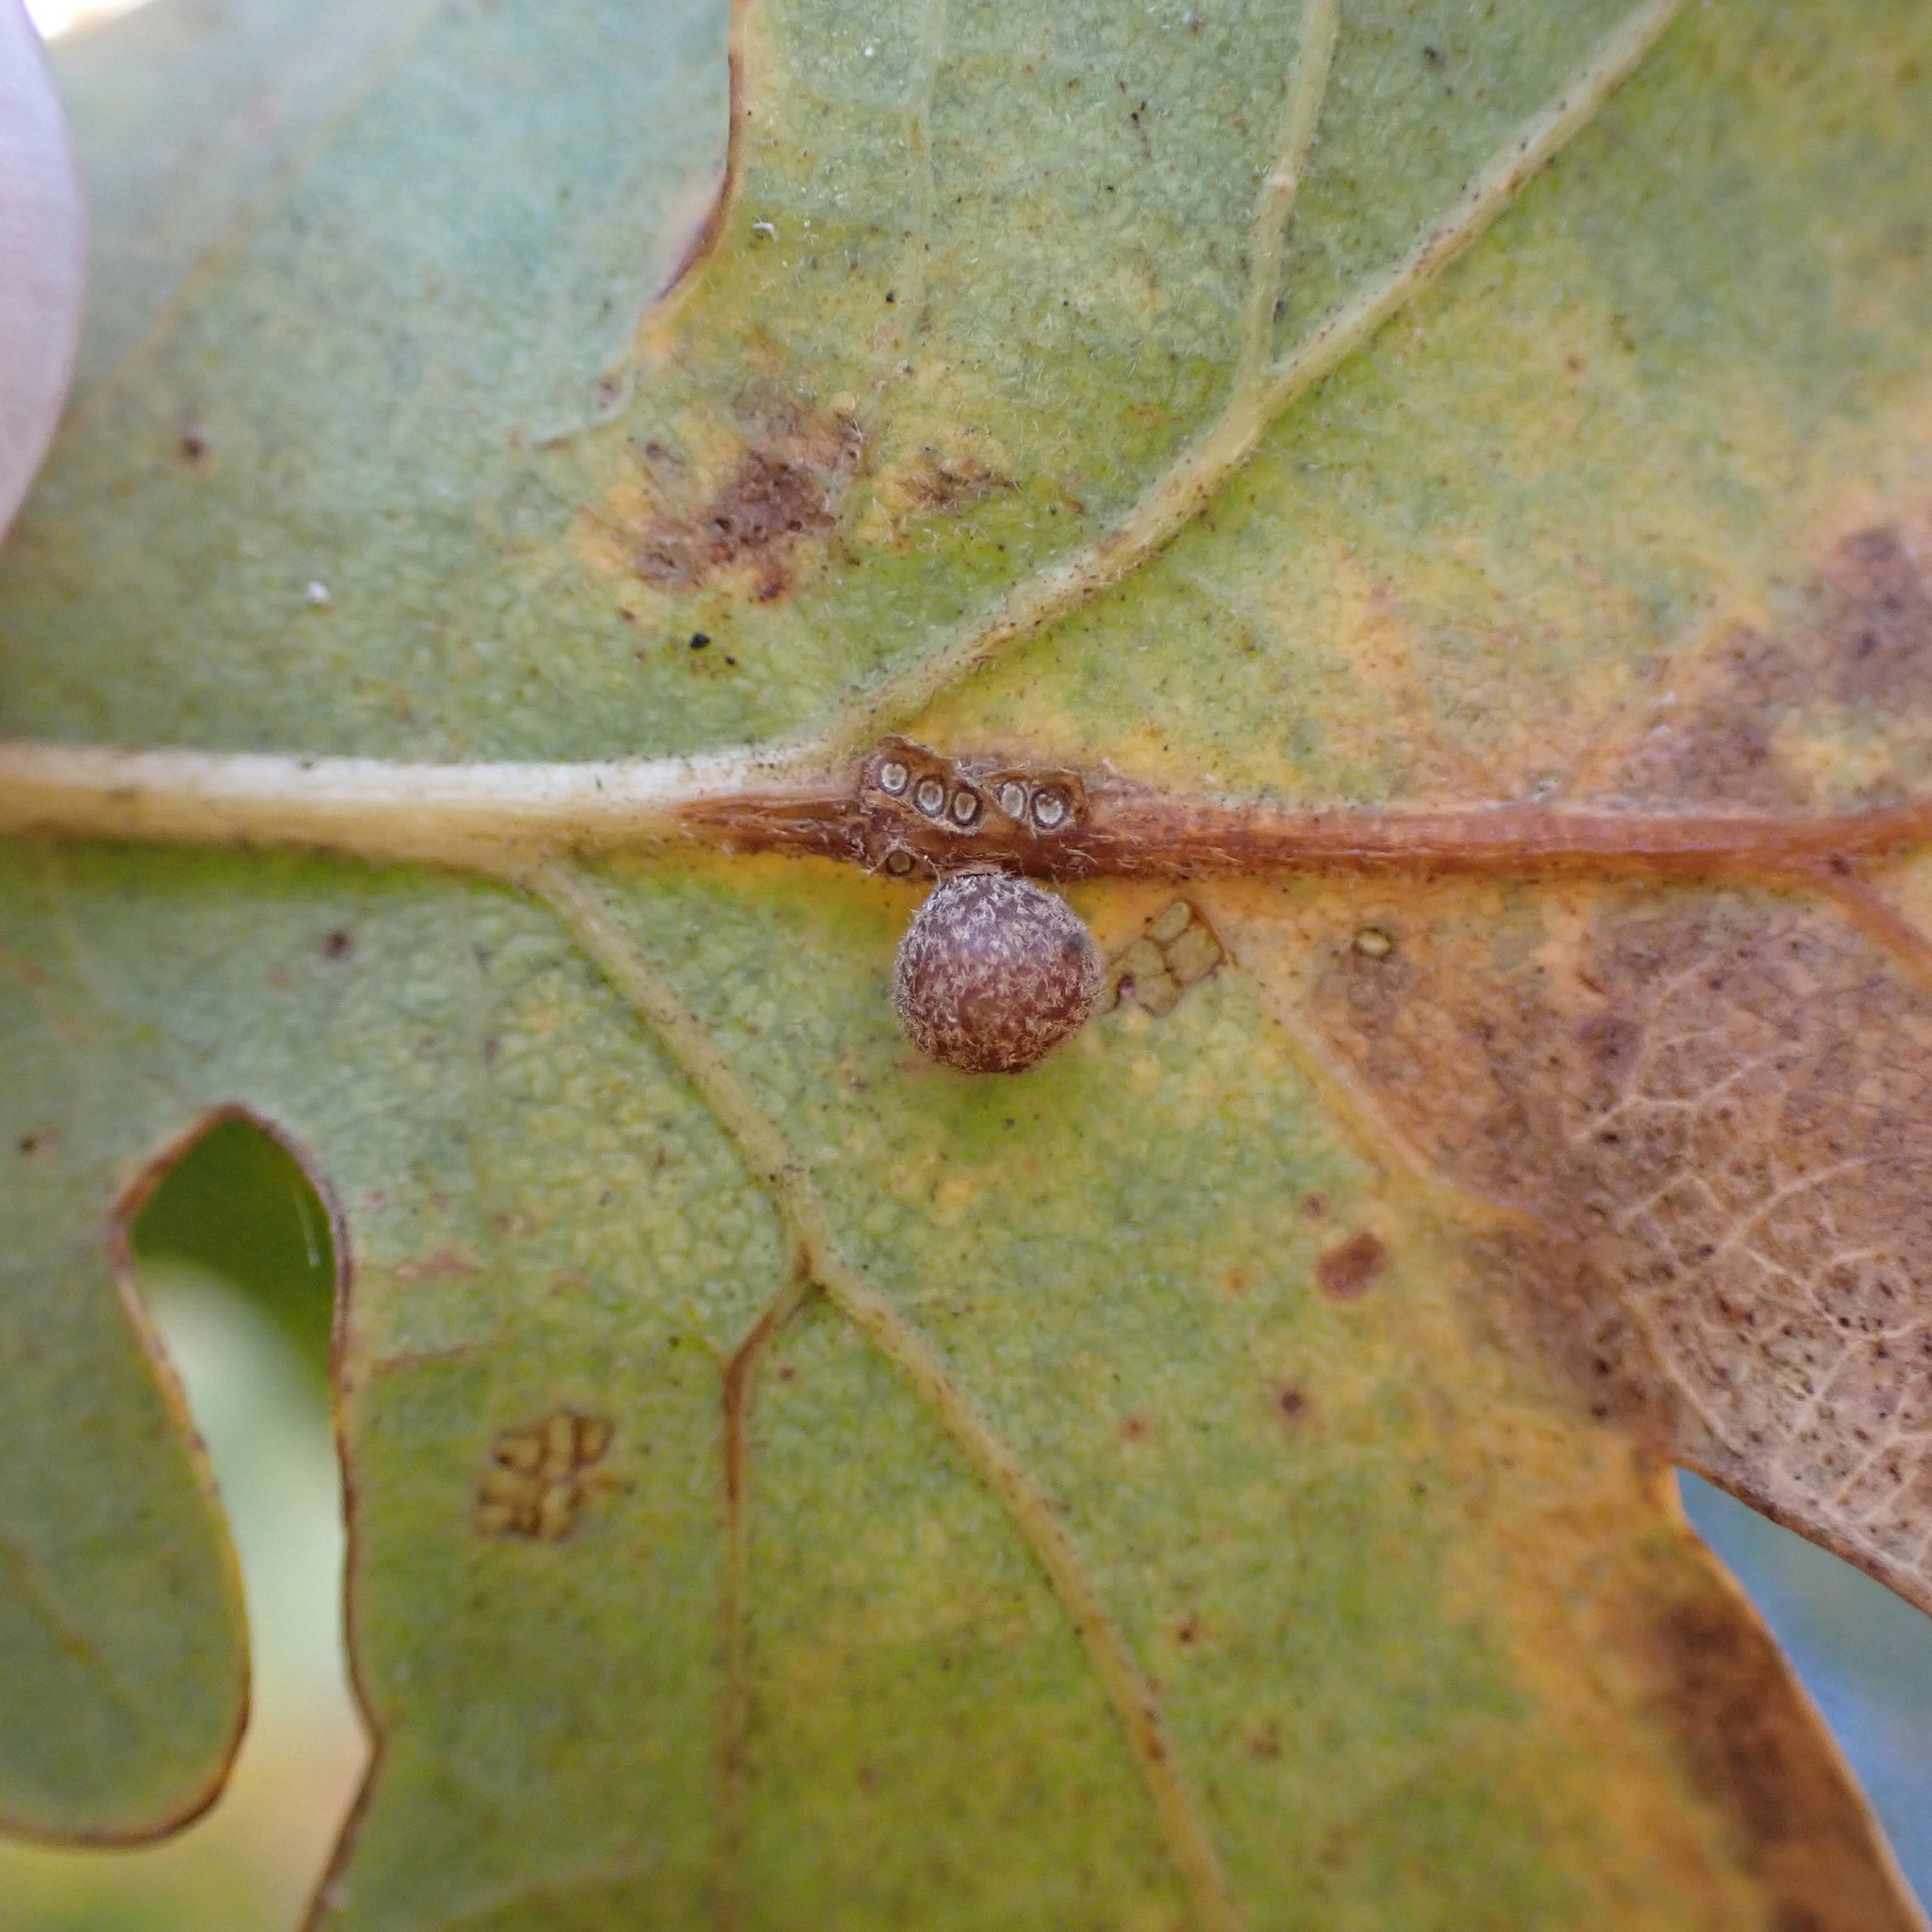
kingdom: Animalia
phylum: Arthropoda
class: Insecta
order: Hymenoptera
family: Cynipidae
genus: Andricus
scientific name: Andricus
